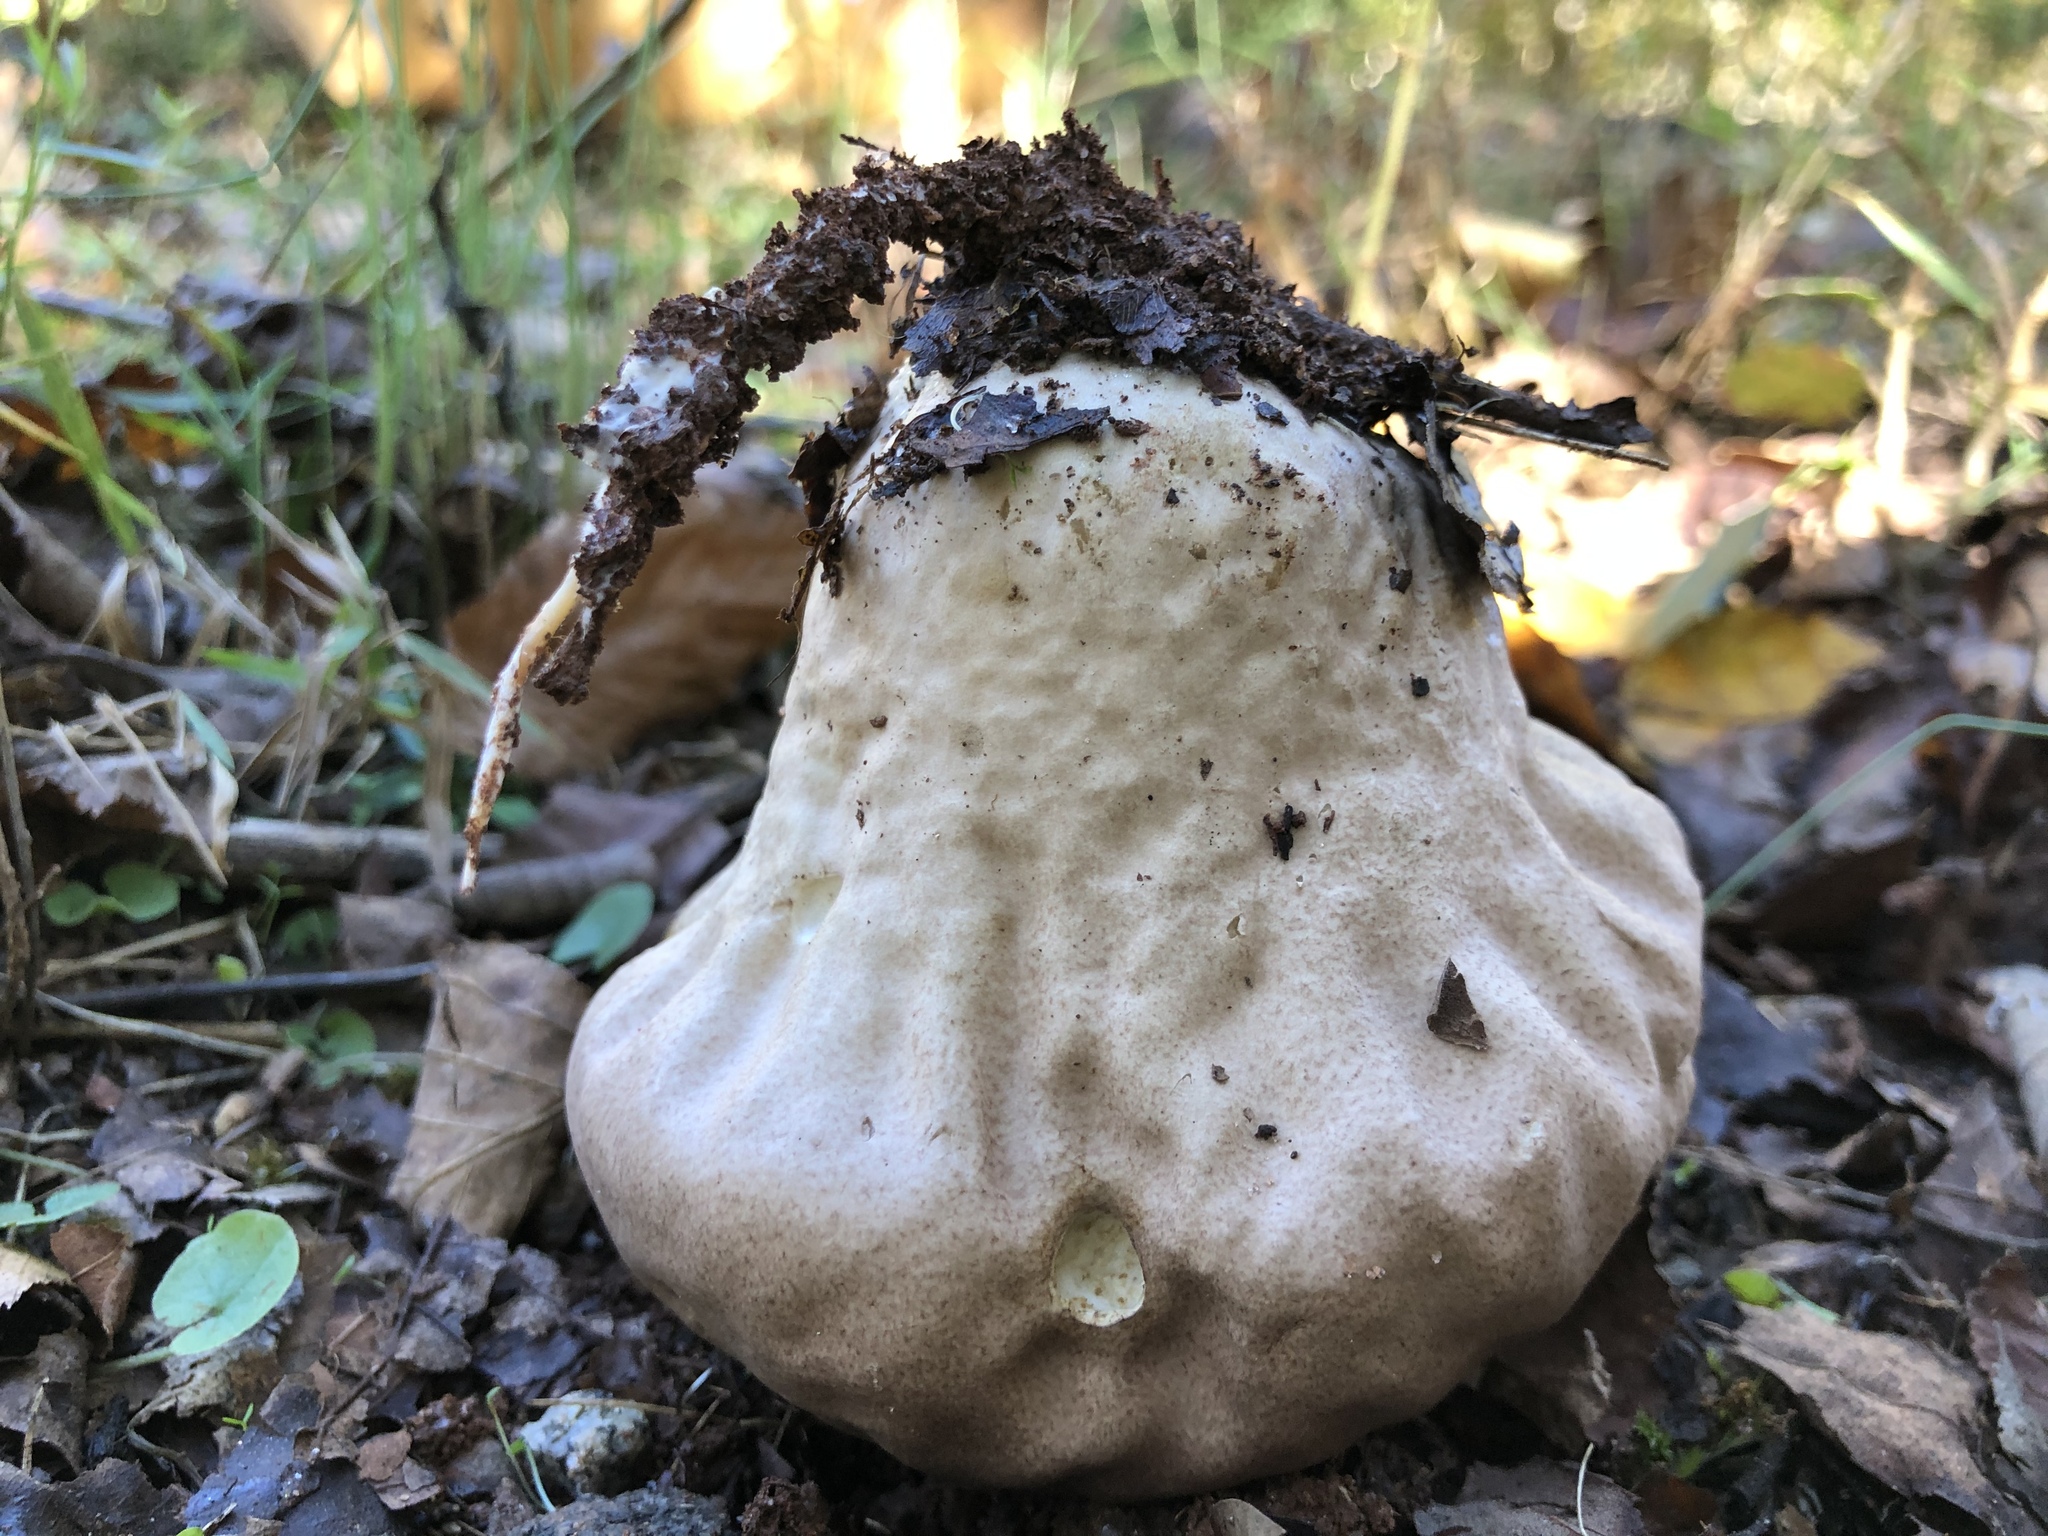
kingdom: Fungi
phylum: Basidiomycota
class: Agaricomycetes
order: Agaricales
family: Lycoperdaceae
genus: Calvatia
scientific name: Calvatia craniiformis
